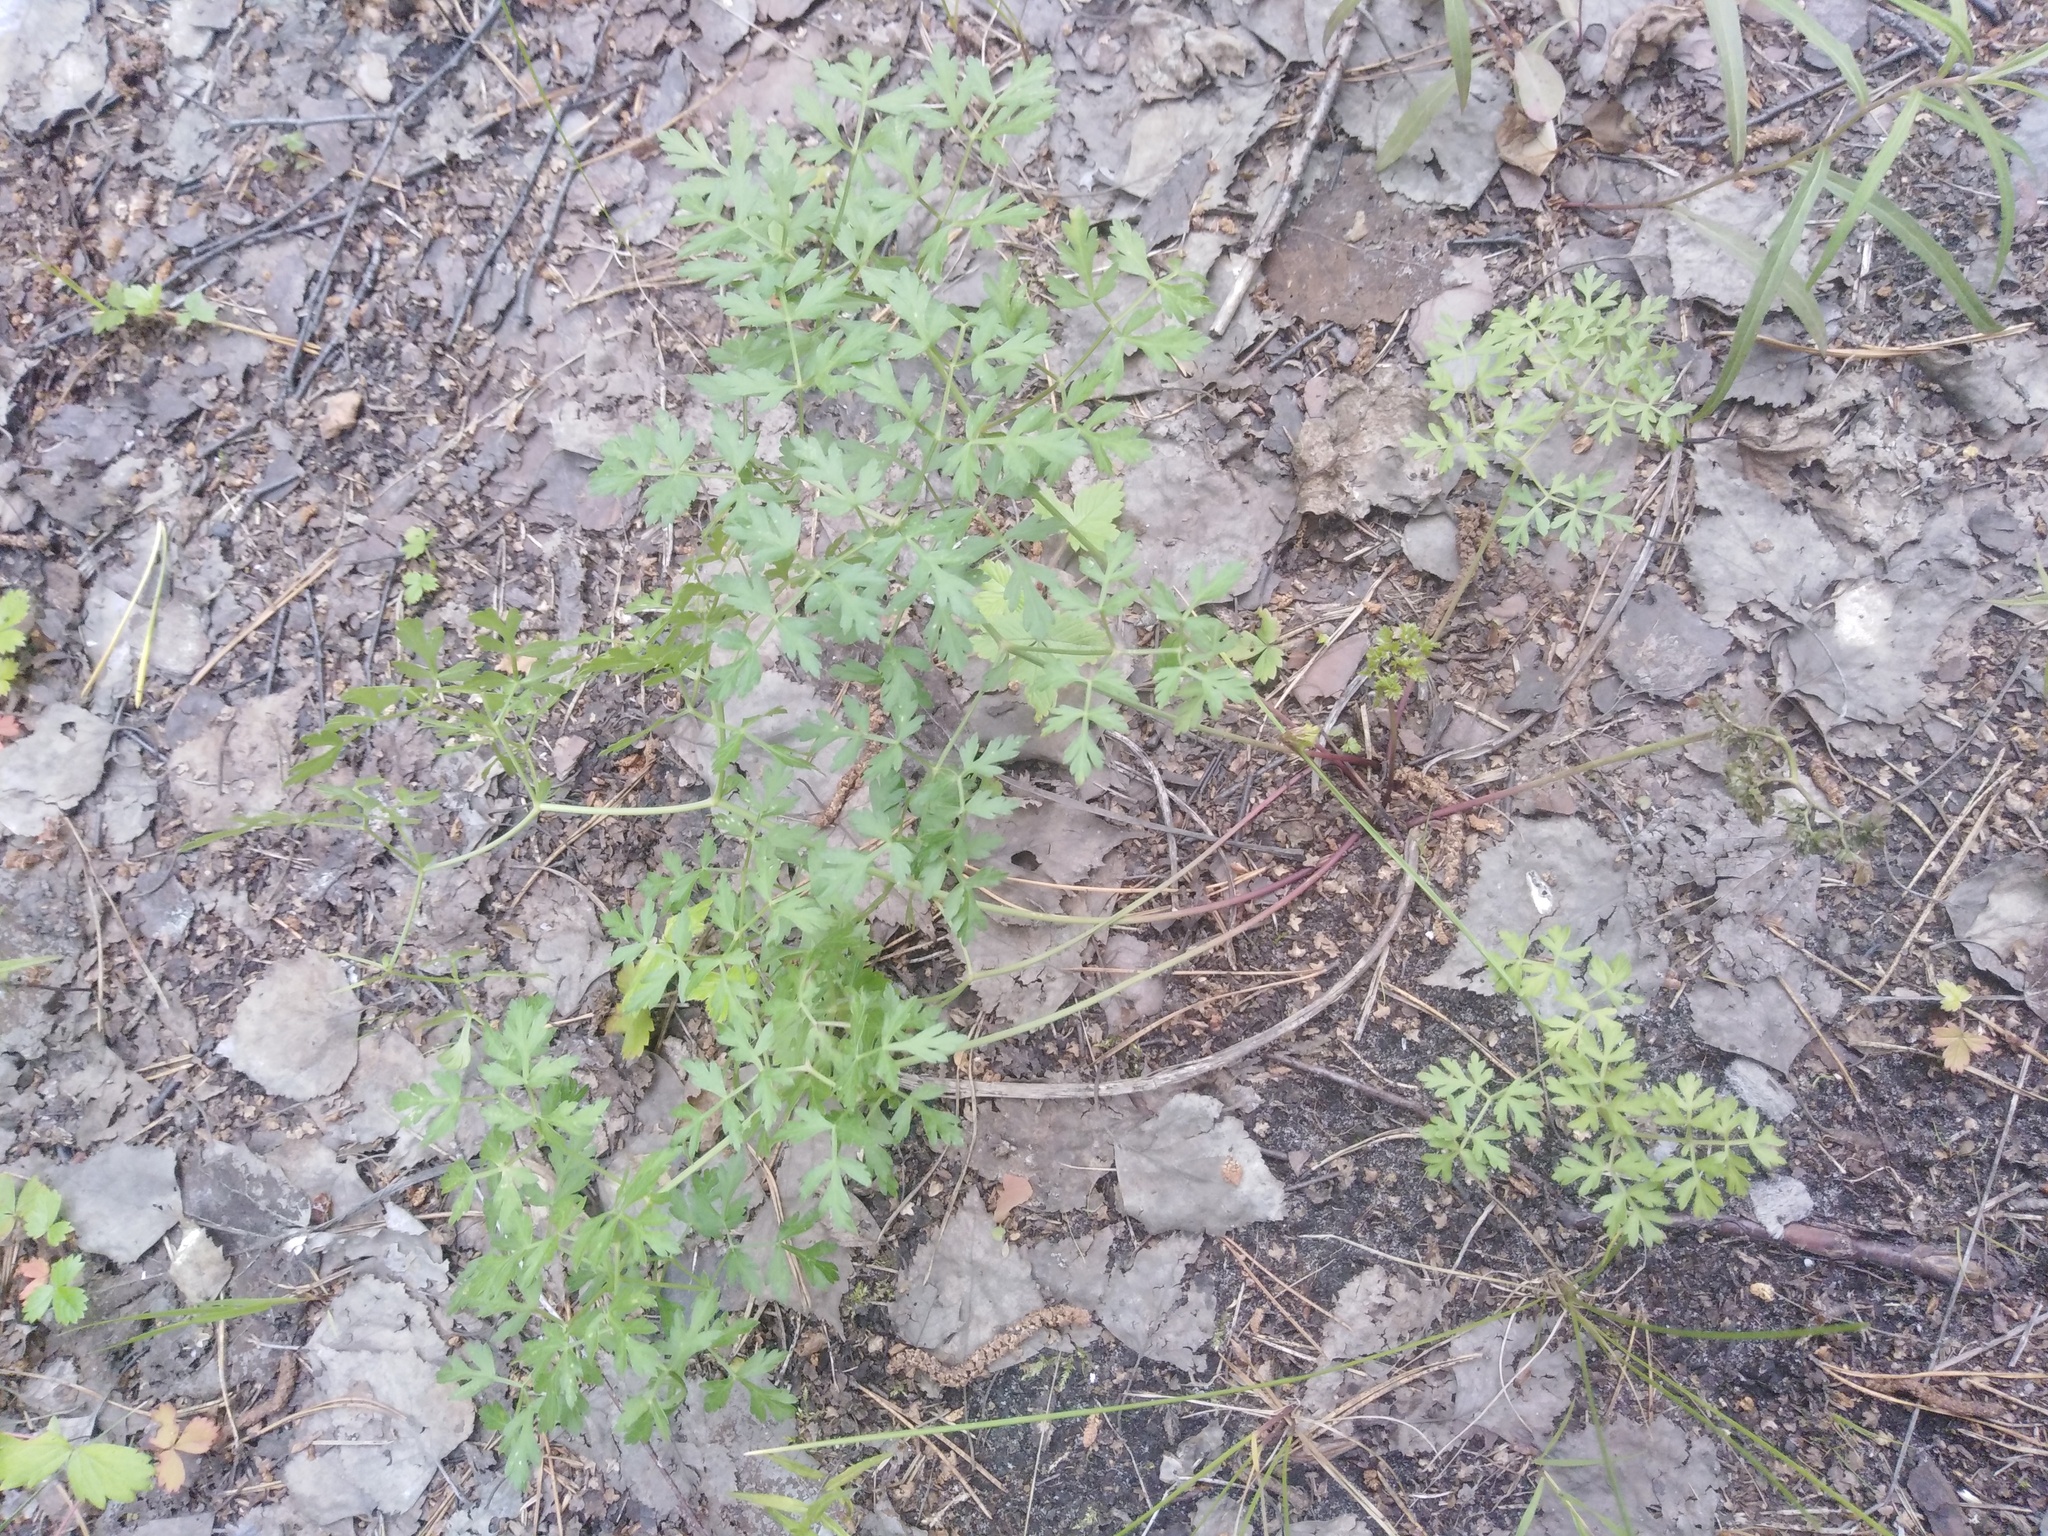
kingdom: Plantae
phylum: Tracheophyta
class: Magnoliopsida
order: Apiales
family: Apiaceae
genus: Oreoselinum
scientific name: Oreoselinum nigrum
